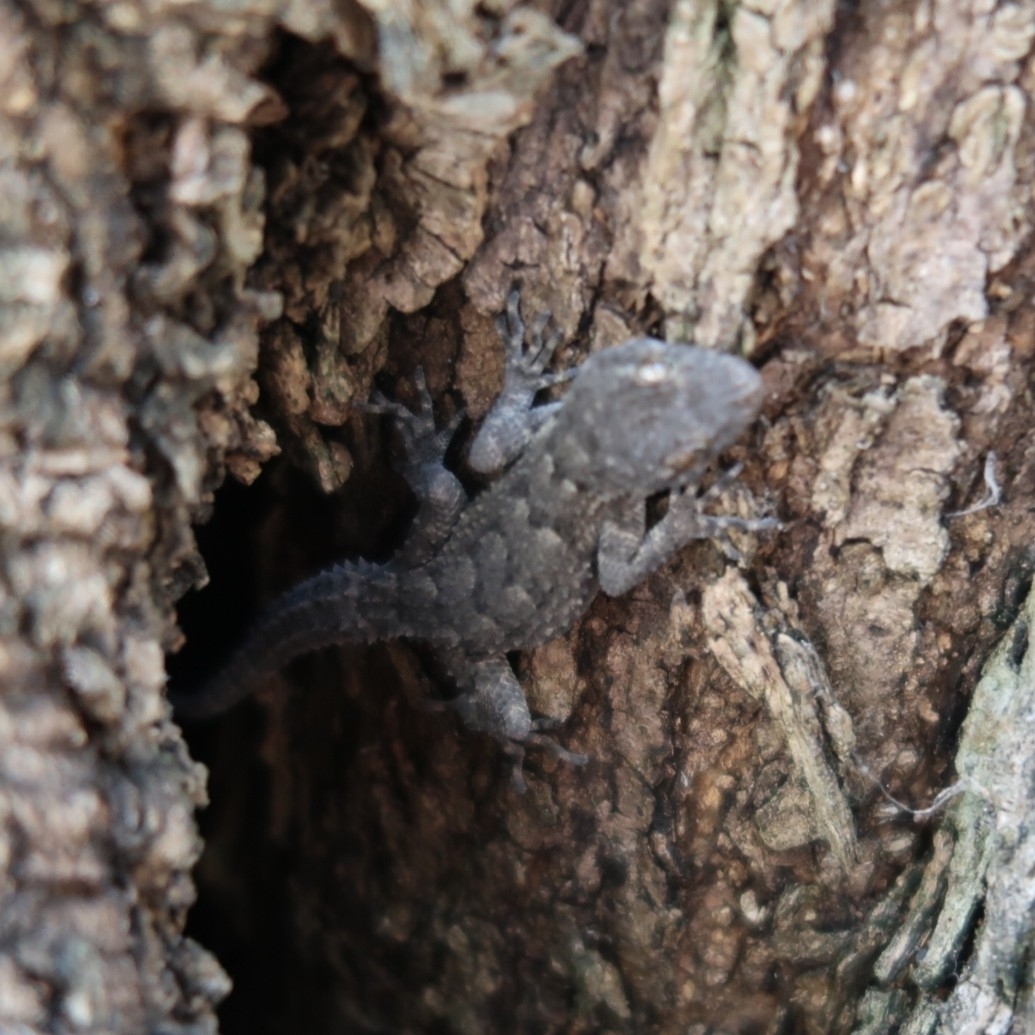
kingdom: Animalia
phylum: Chordata
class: Squamata
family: Gekkonidae
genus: Mediodactylus
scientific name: Mediodactylus kotschyi
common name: Kotschy's gecko
